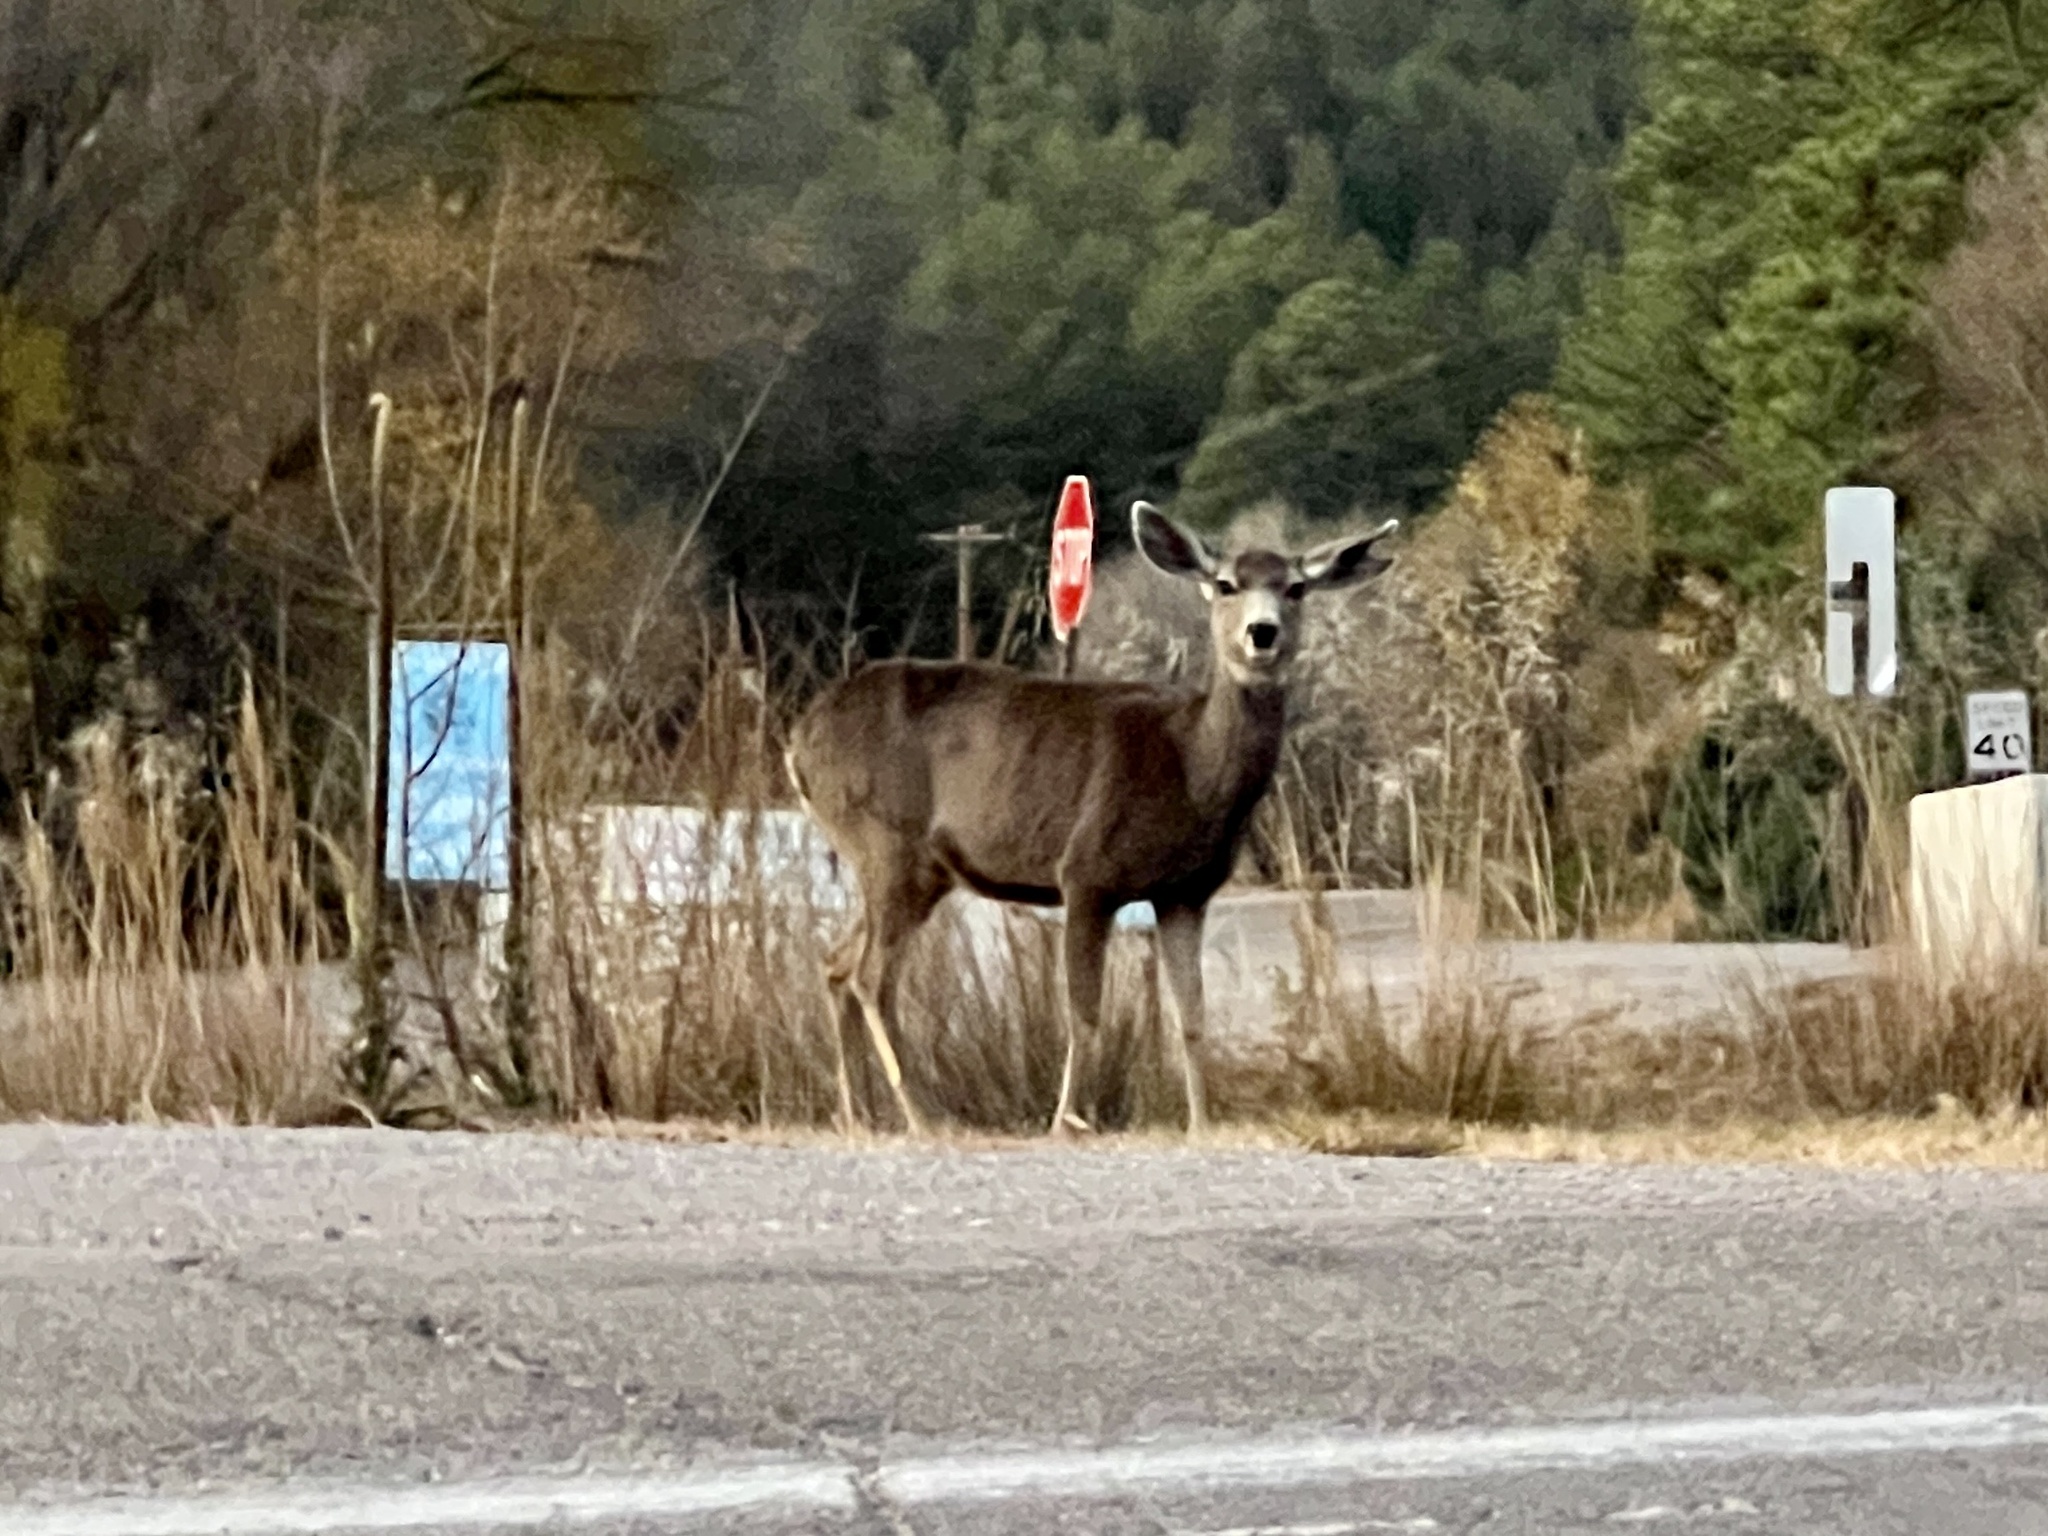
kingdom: Animalia
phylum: Chordata
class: Mammalia
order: Artiodactyla
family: Cervidae
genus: Odocoileus
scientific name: Odocoileus hemionus
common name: Mule deer
